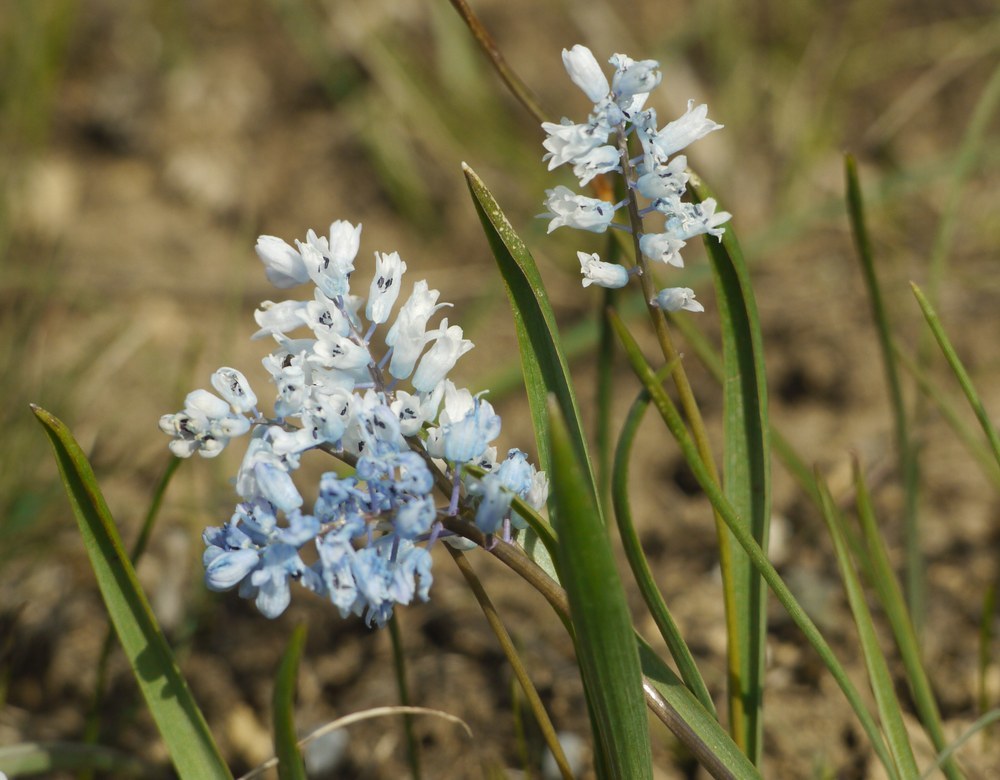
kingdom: Plantae
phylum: Tracheophyta
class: Liliopsida
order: Asparagales
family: Asparagaceae
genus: Hyacinthella
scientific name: Hyacinthella leucophaea
